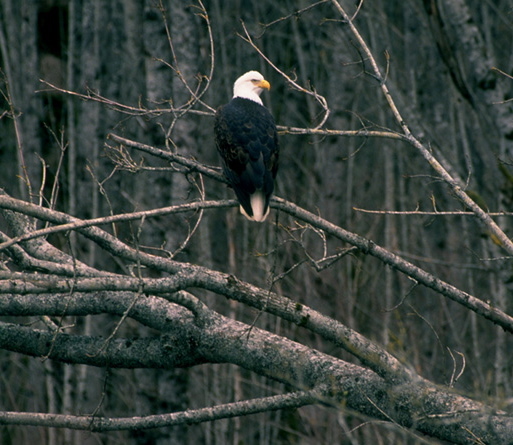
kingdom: Animalia
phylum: Chordata
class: Aves
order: Accipitriformes
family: Accipitridae
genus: Haliaeetus
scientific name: Haliaeetus leucocephalus
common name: Bald eagle
